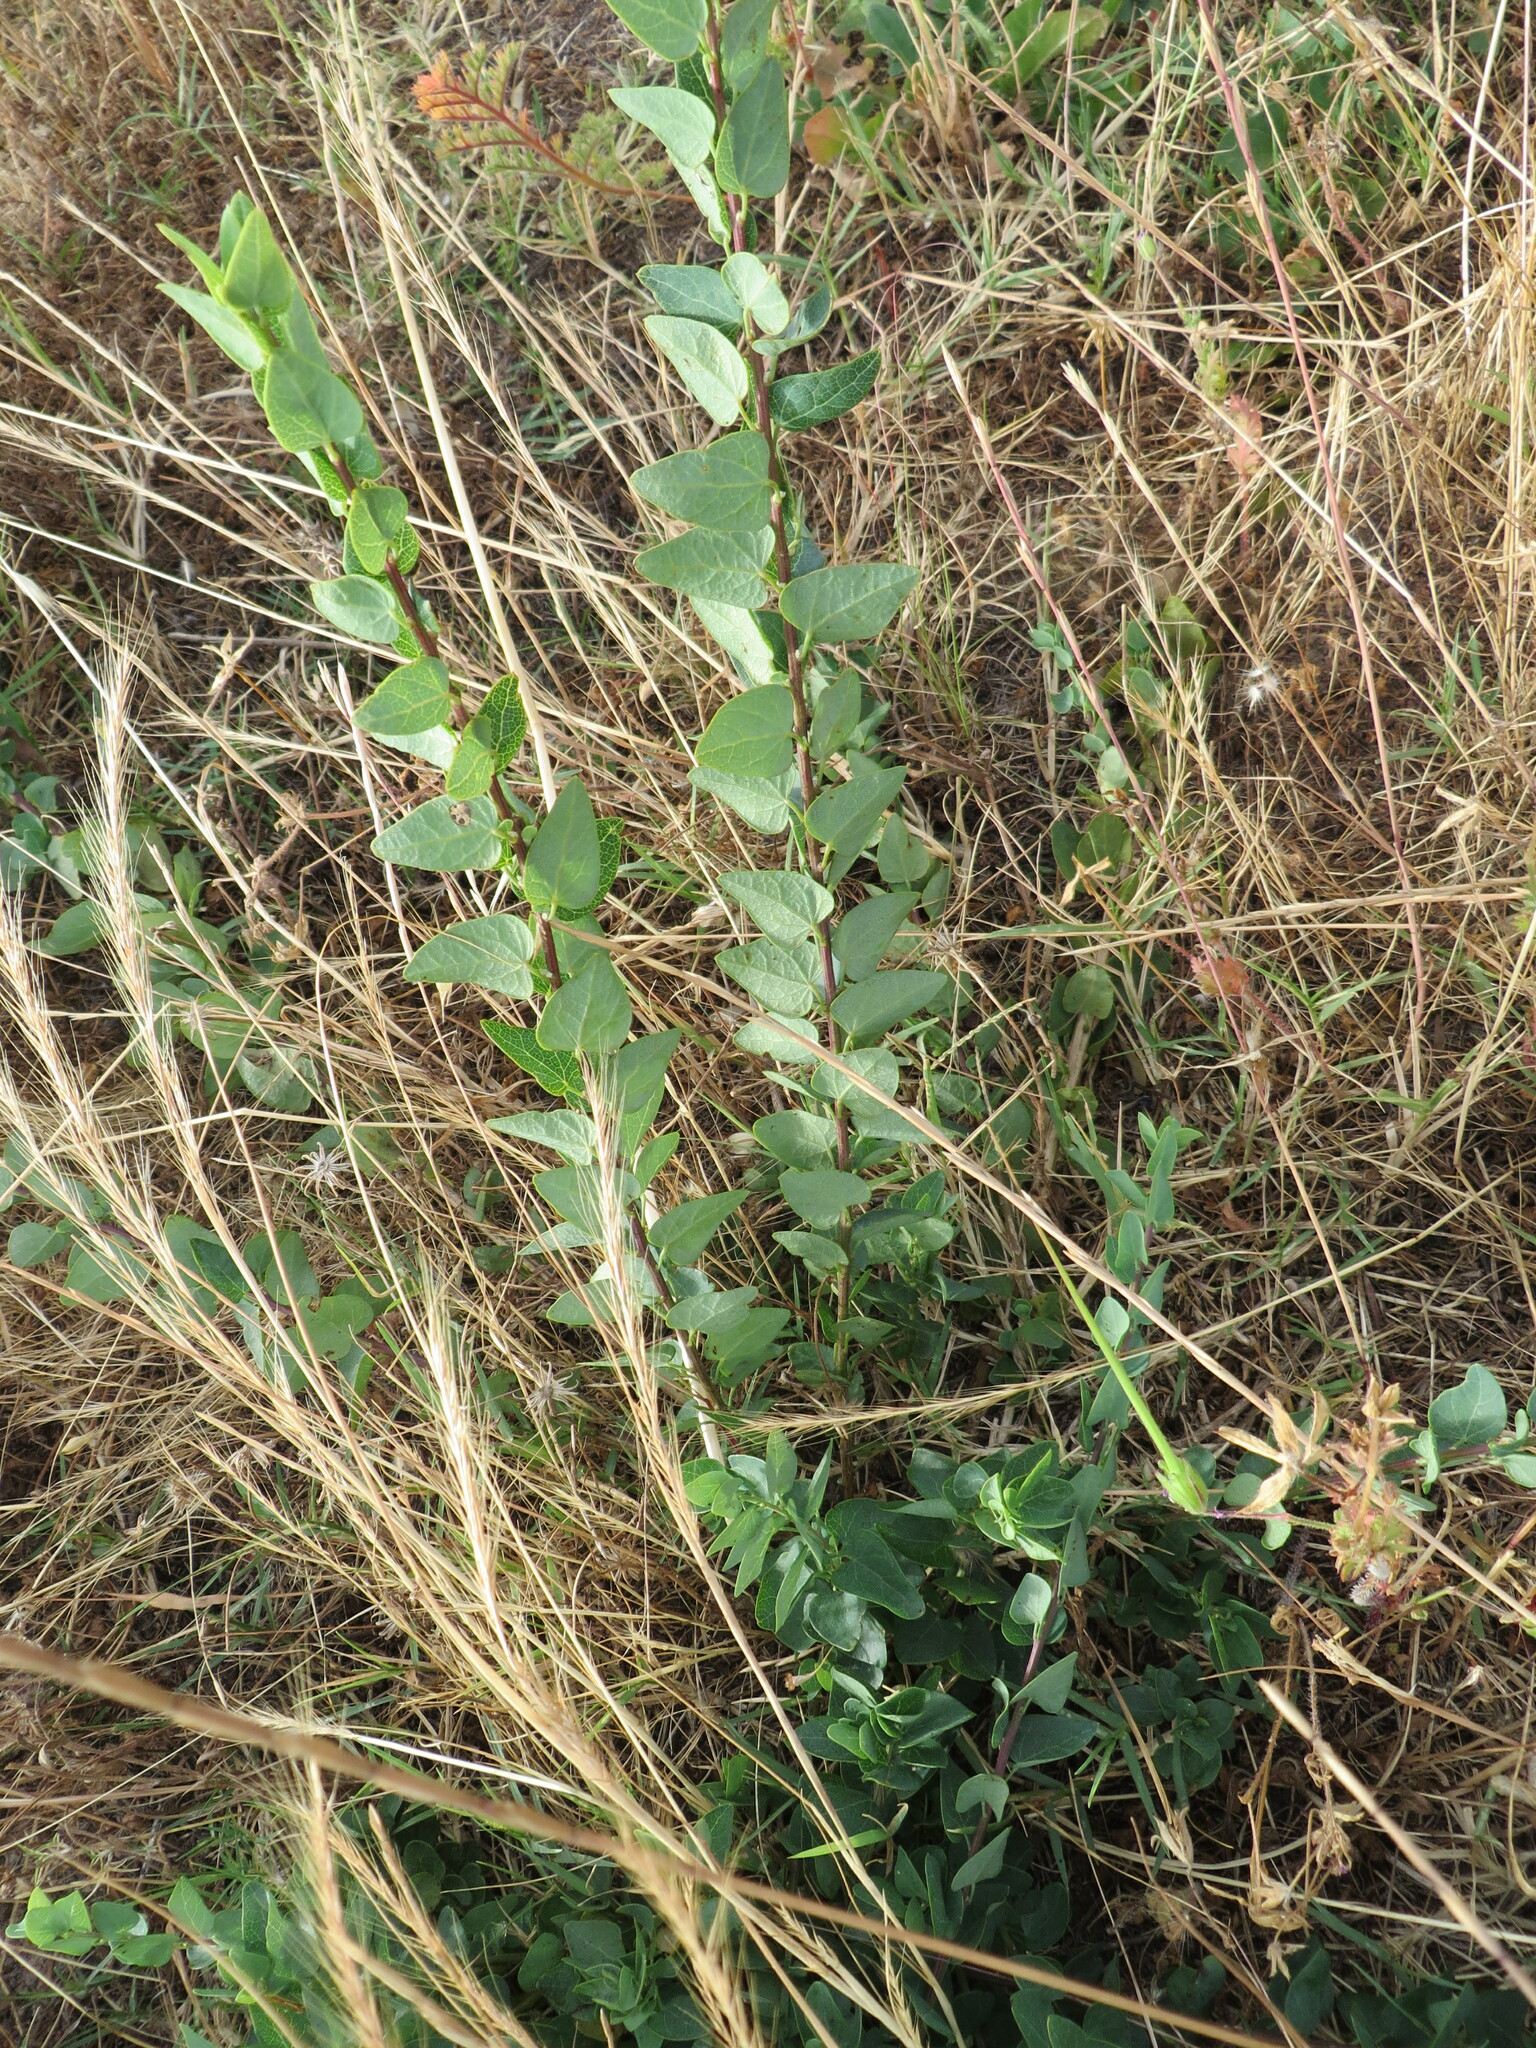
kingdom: Plantae
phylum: Tracheophyta
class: Magnoliopsida
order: Ranunculales
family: Menispermaceae
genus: Cissampelos
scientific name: Cissampelos capensis
